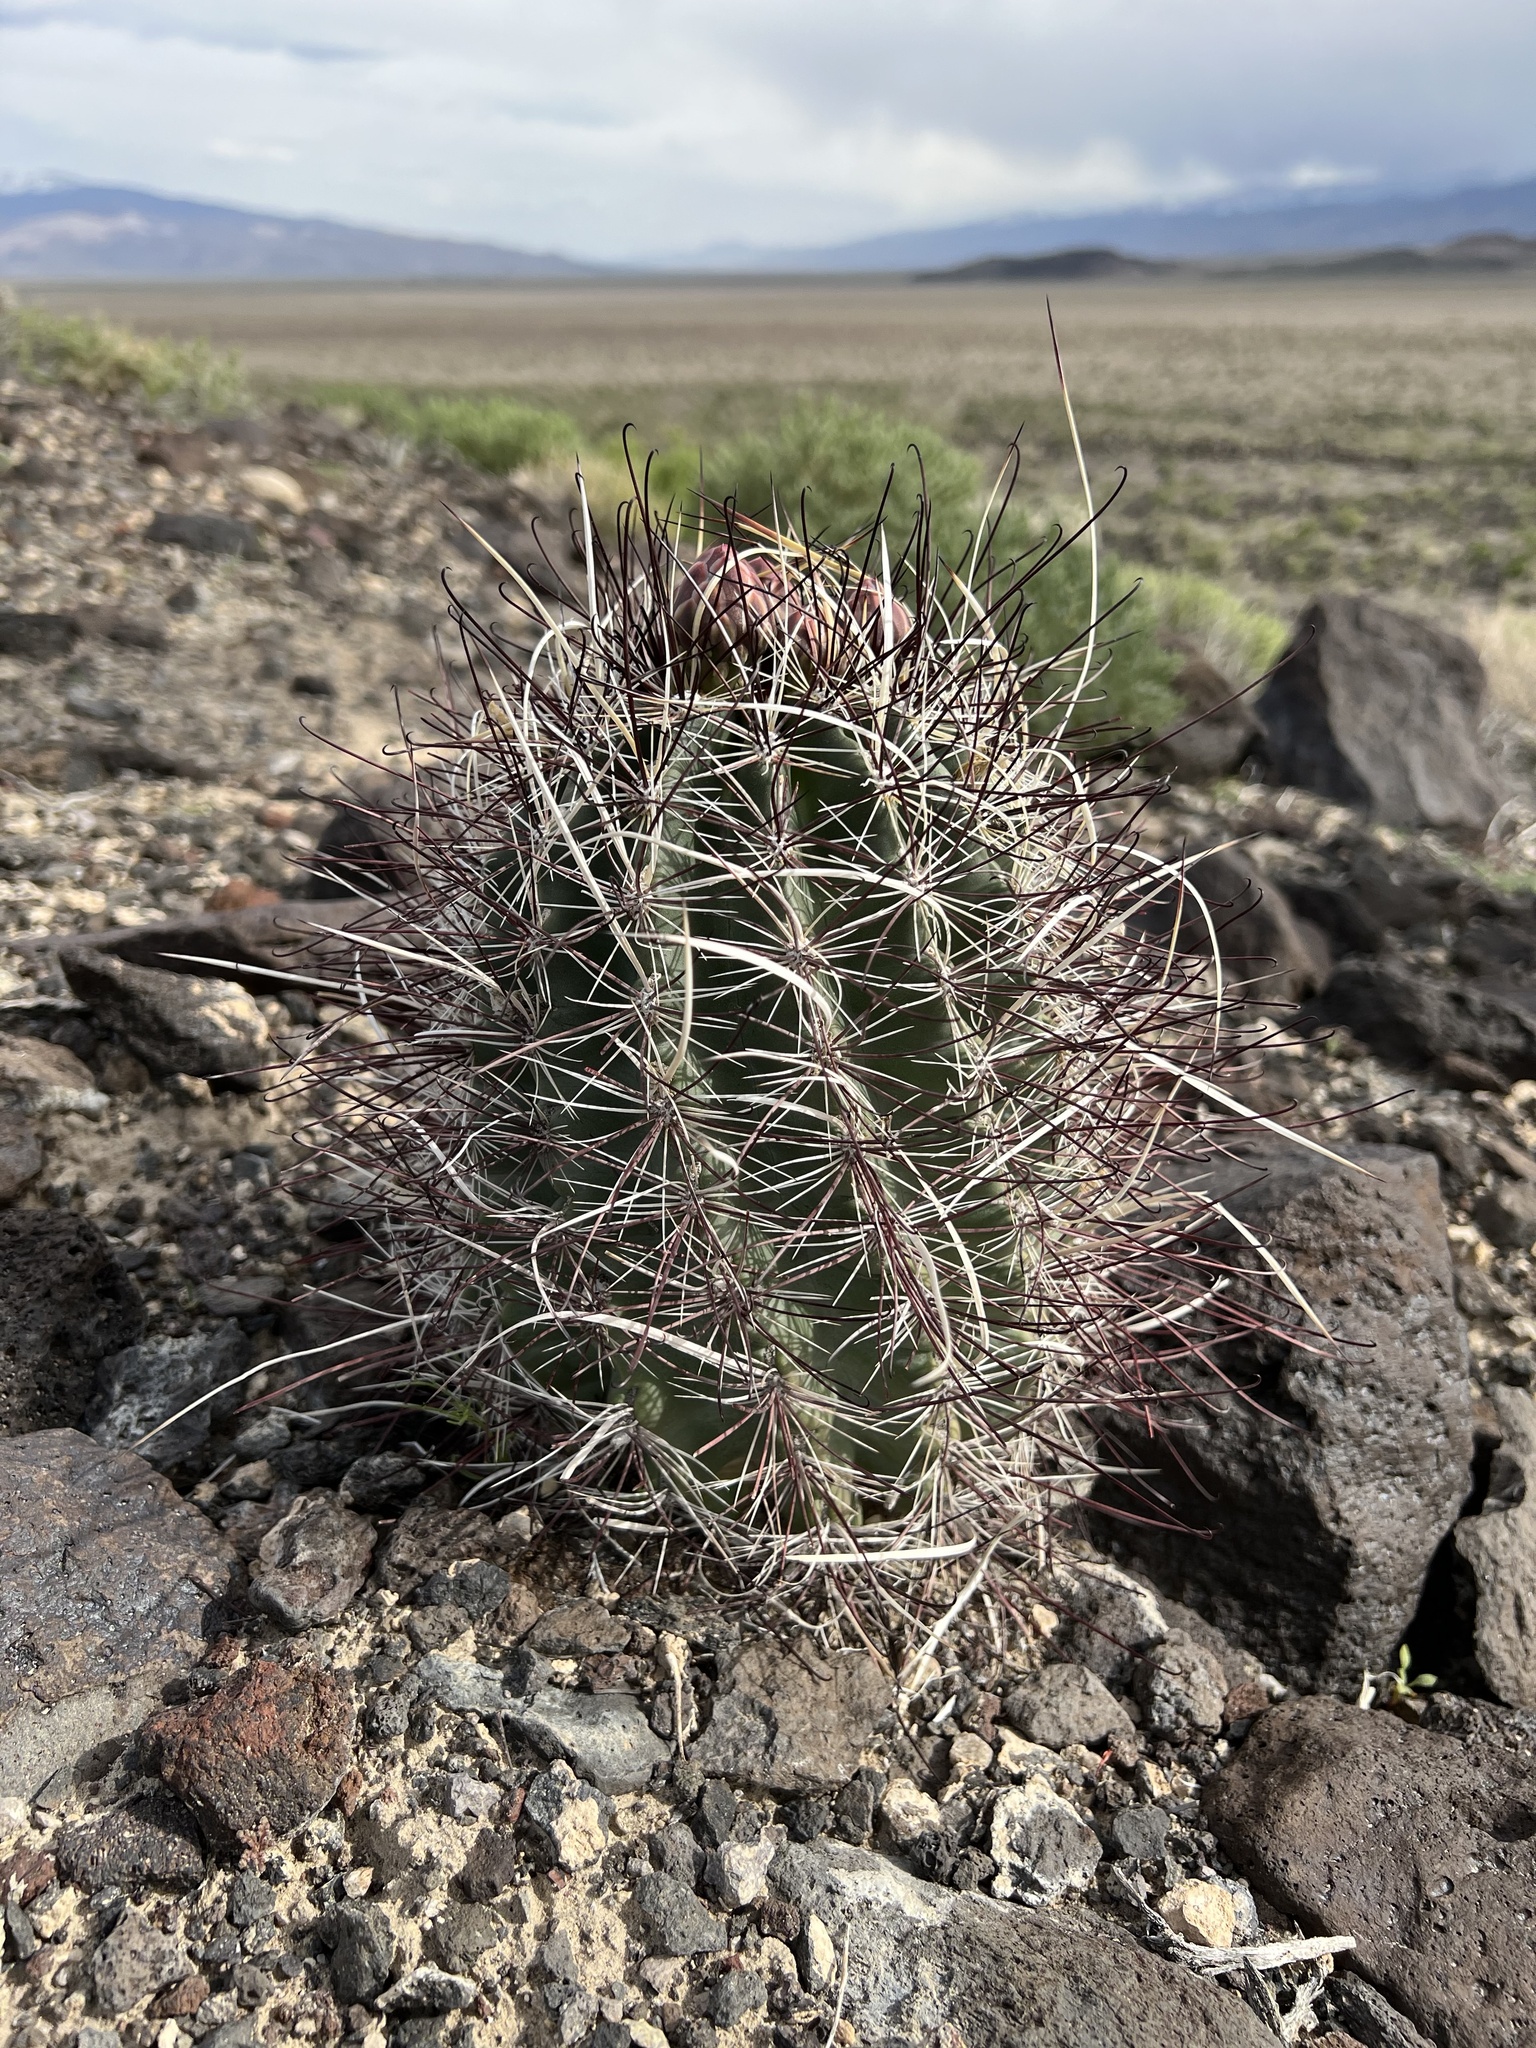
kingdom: Plantae
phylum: Tracheophyta
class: Magnoliopsida
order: Caryophyllales
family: Cactaceae
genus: Sclerocactus
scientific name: Sclerocactus polyancistrus
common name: Mohave fishhook cactus
